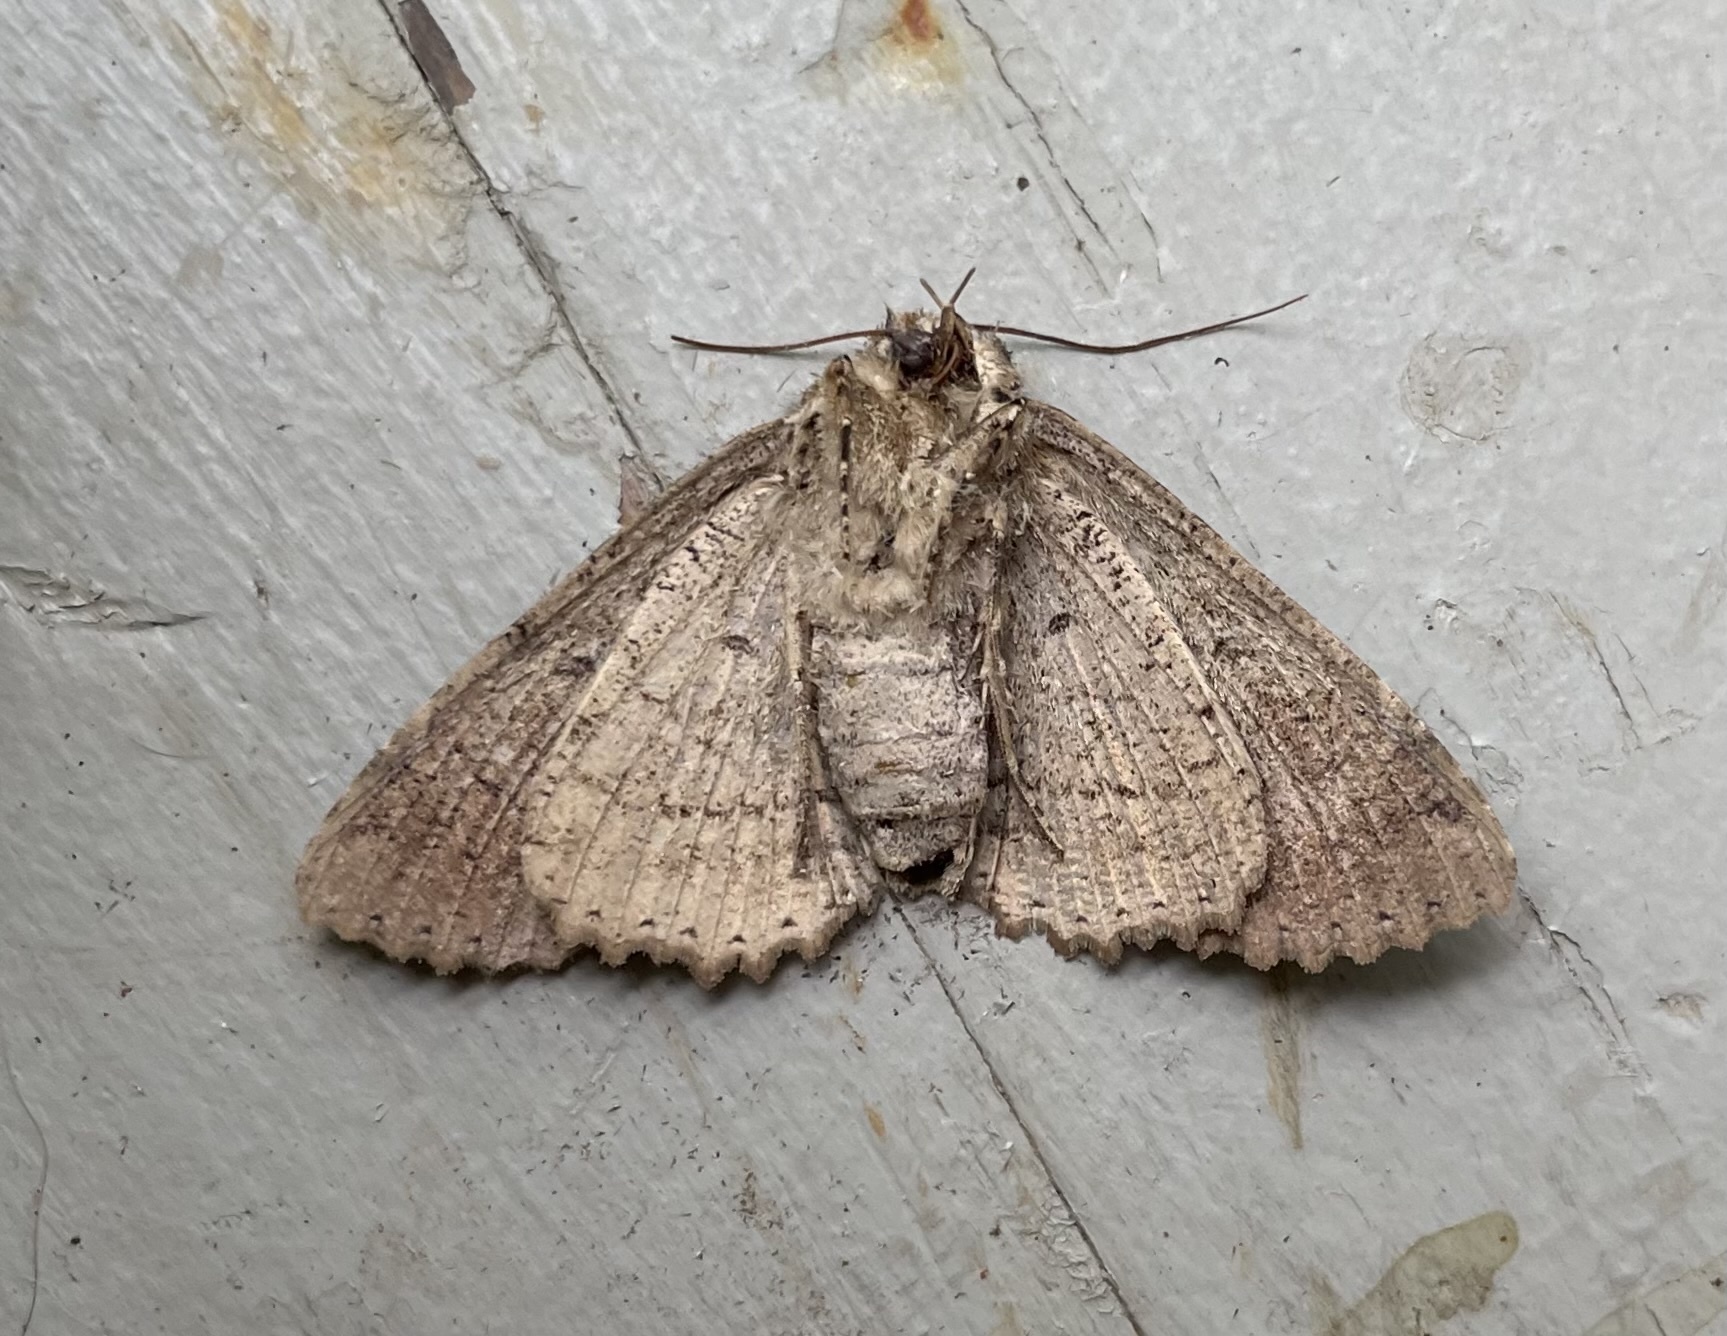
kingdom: Animalia
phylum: Arthropoda
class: Insecta
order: Lepidoptera
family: Erebidae
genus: Zale
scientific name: Zale lunata
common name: Lunate zale moth
